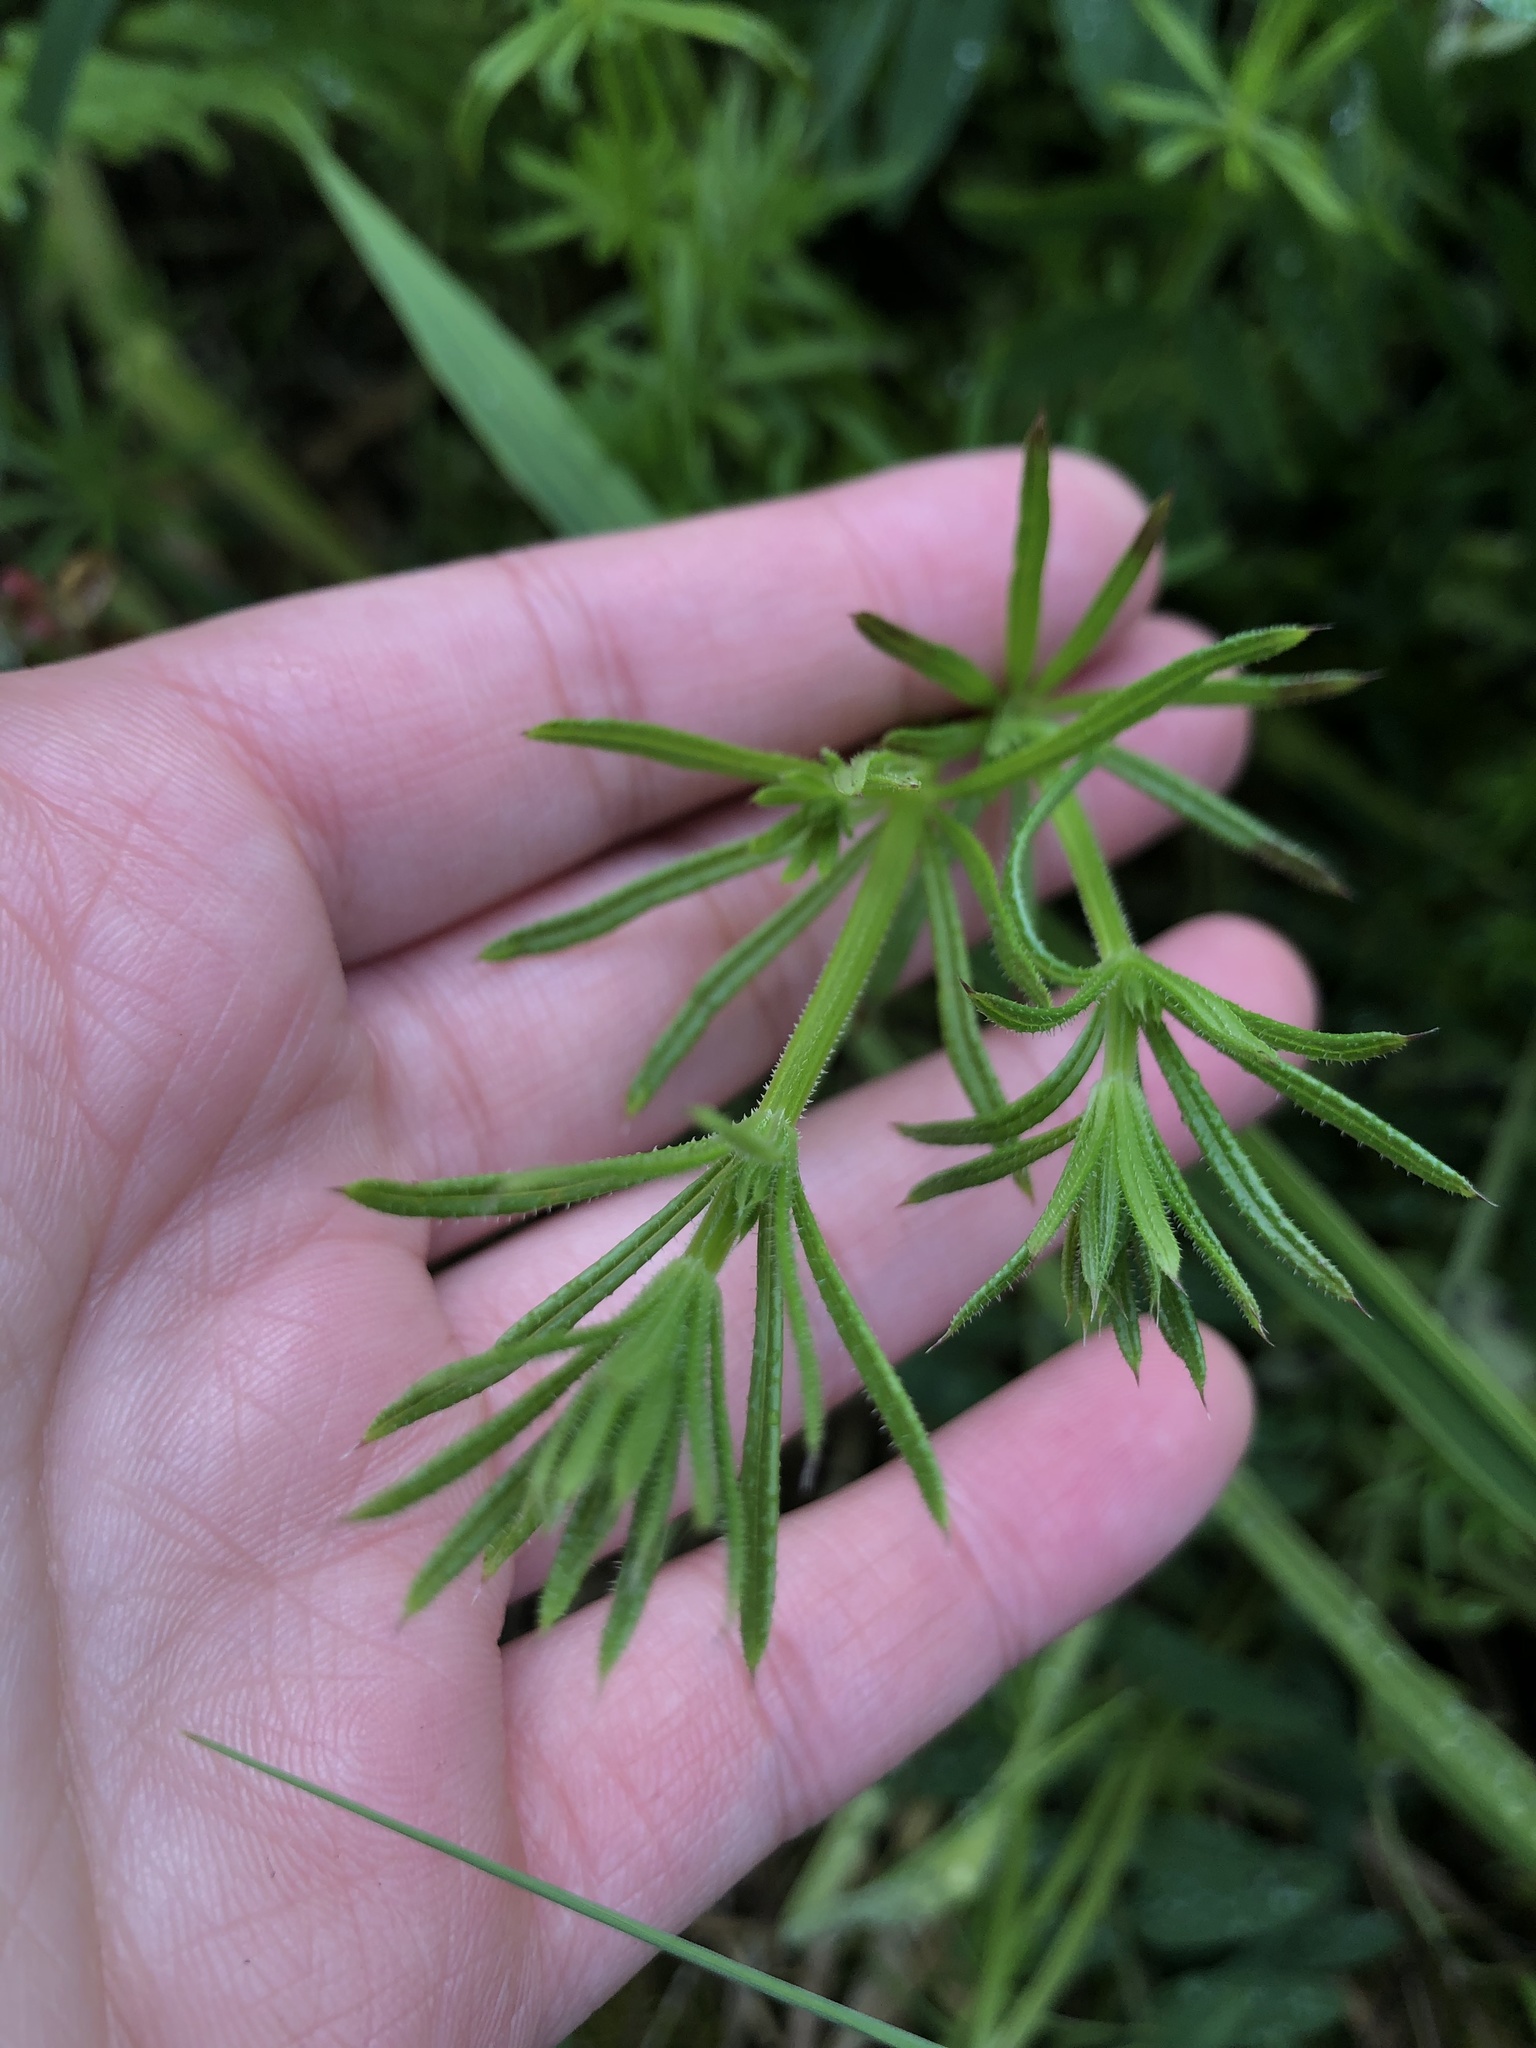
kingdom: Plantae
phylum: Tracheophyta
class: Magnoliopsida
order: Gentianales
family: Rubiaceae
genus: Galium
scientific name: Galium aparine
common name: Cleavers
